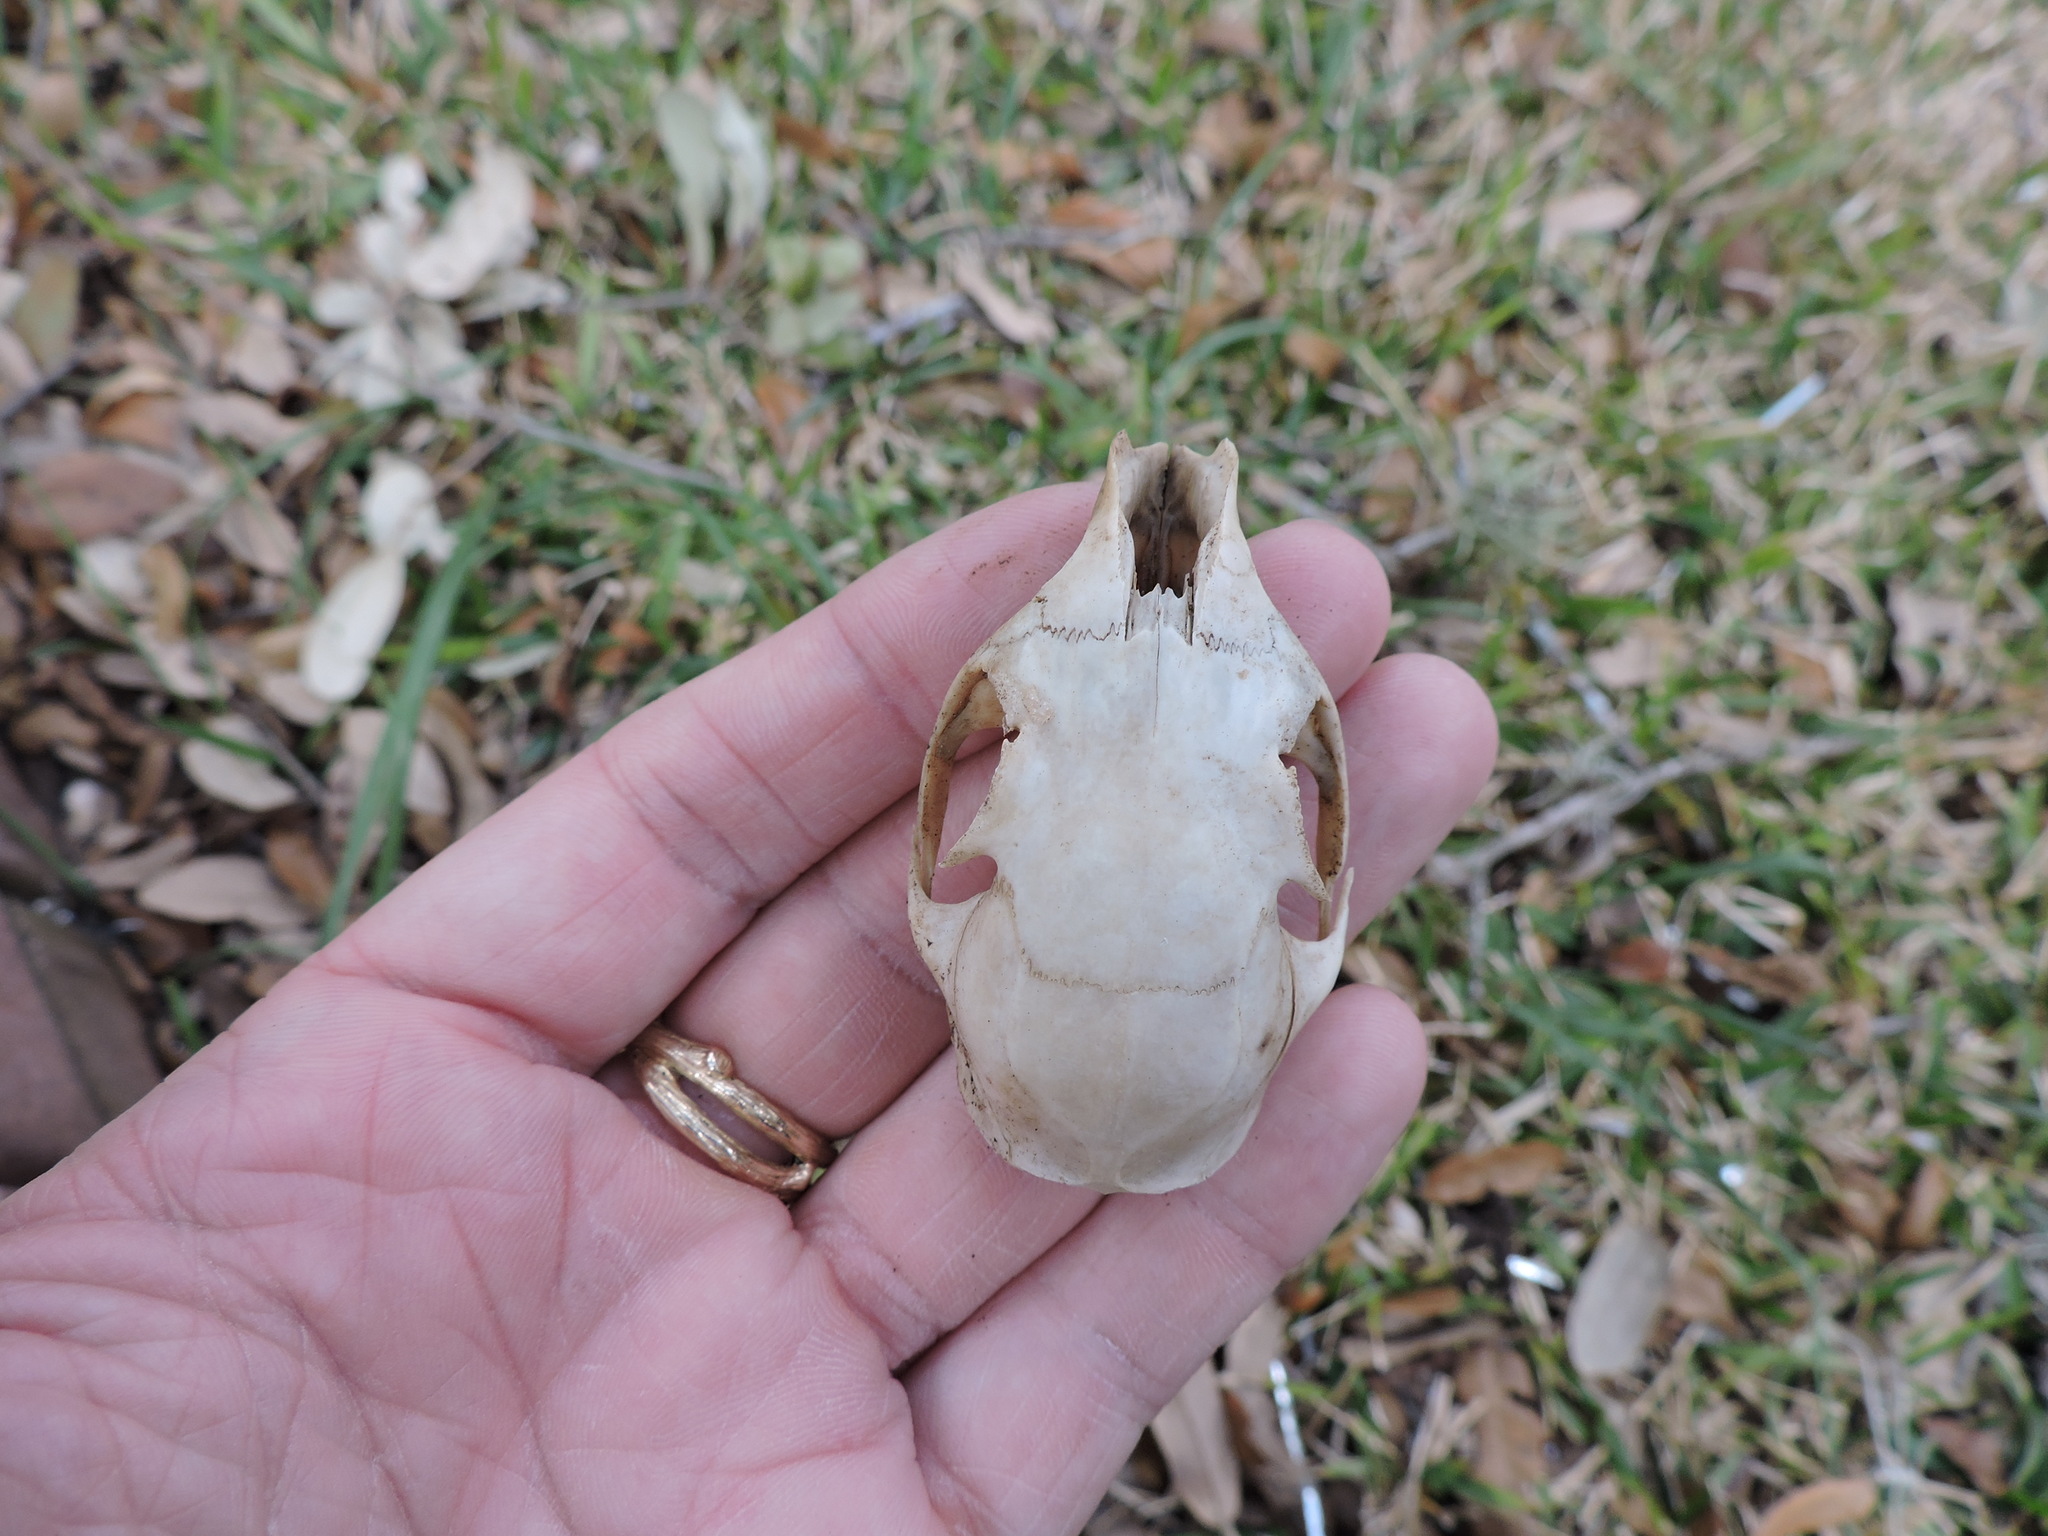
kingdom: Animalia
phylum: Chordata
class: Mammalia
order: Rodentia
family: Sciuridae
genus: Sciurus
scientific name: Sciurus niger
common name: Fox squirrel
